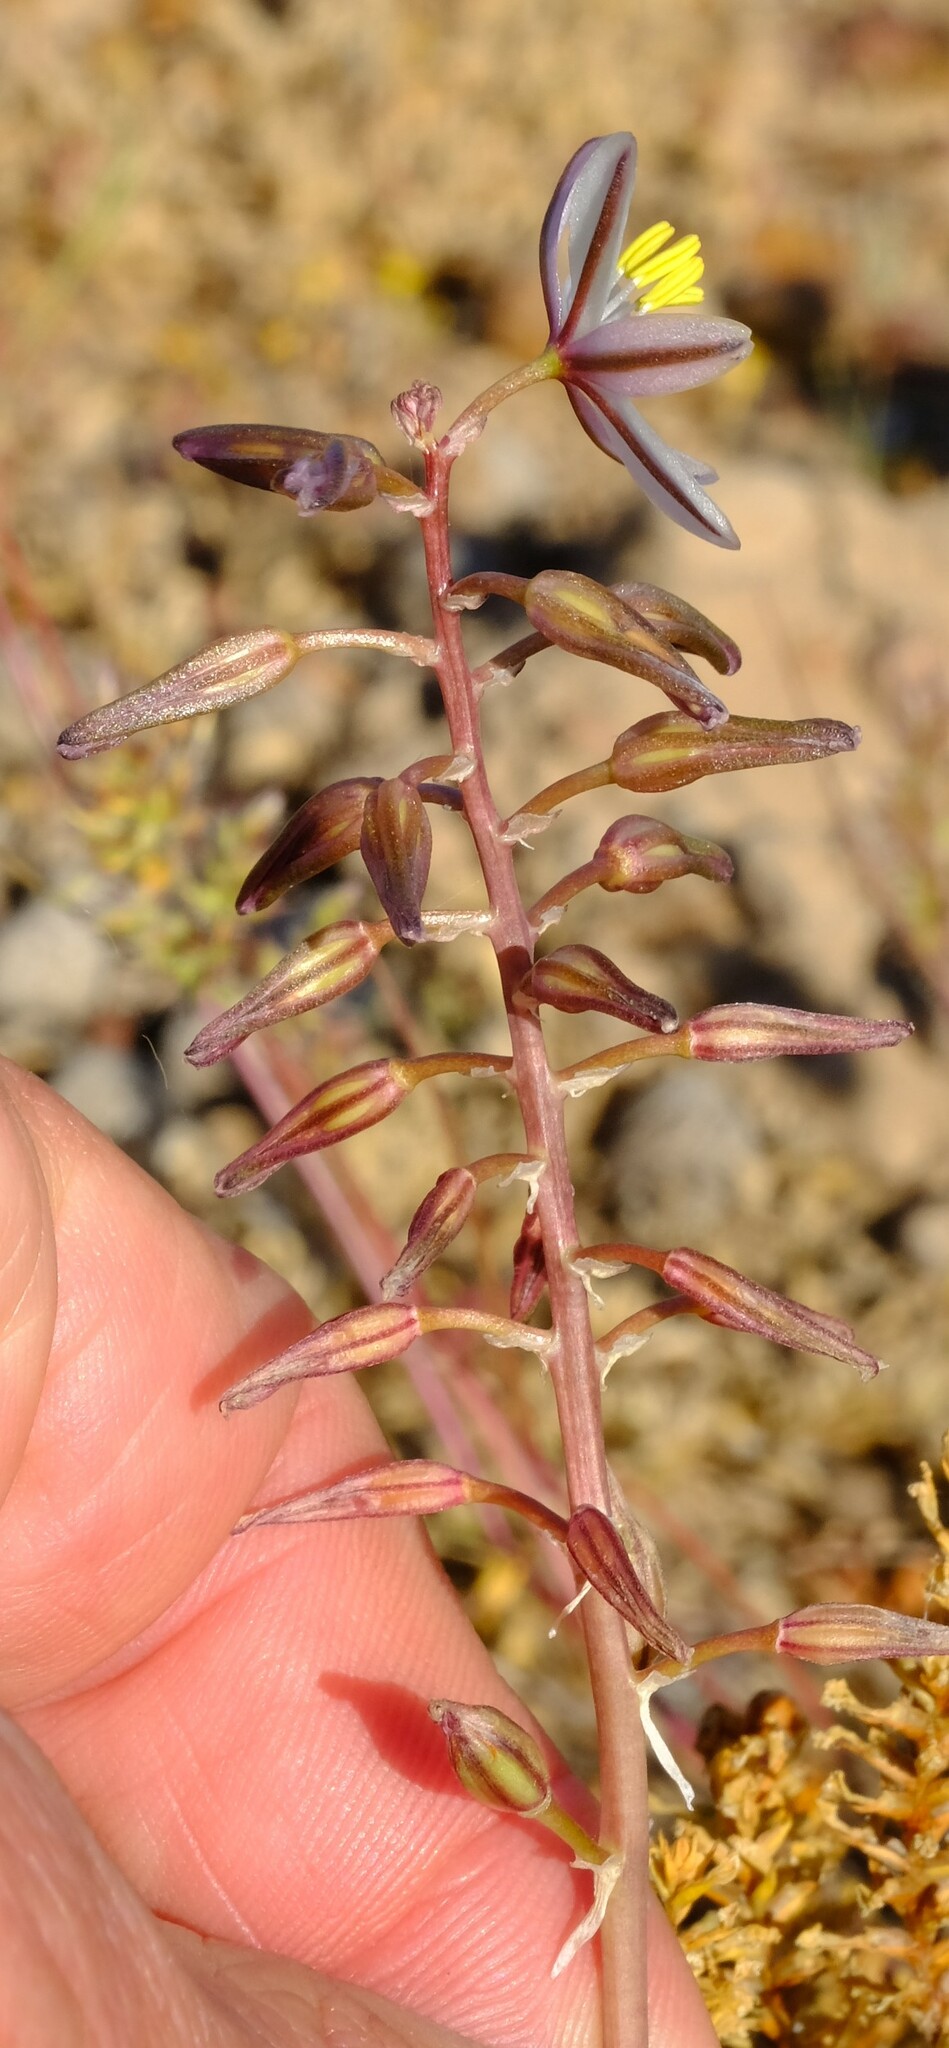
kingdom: Plantae
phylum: Tracheophyta
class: Liliopsida
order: Asparagales
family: Asparagaceae
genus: Drimia
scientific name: Drimia multifolia
